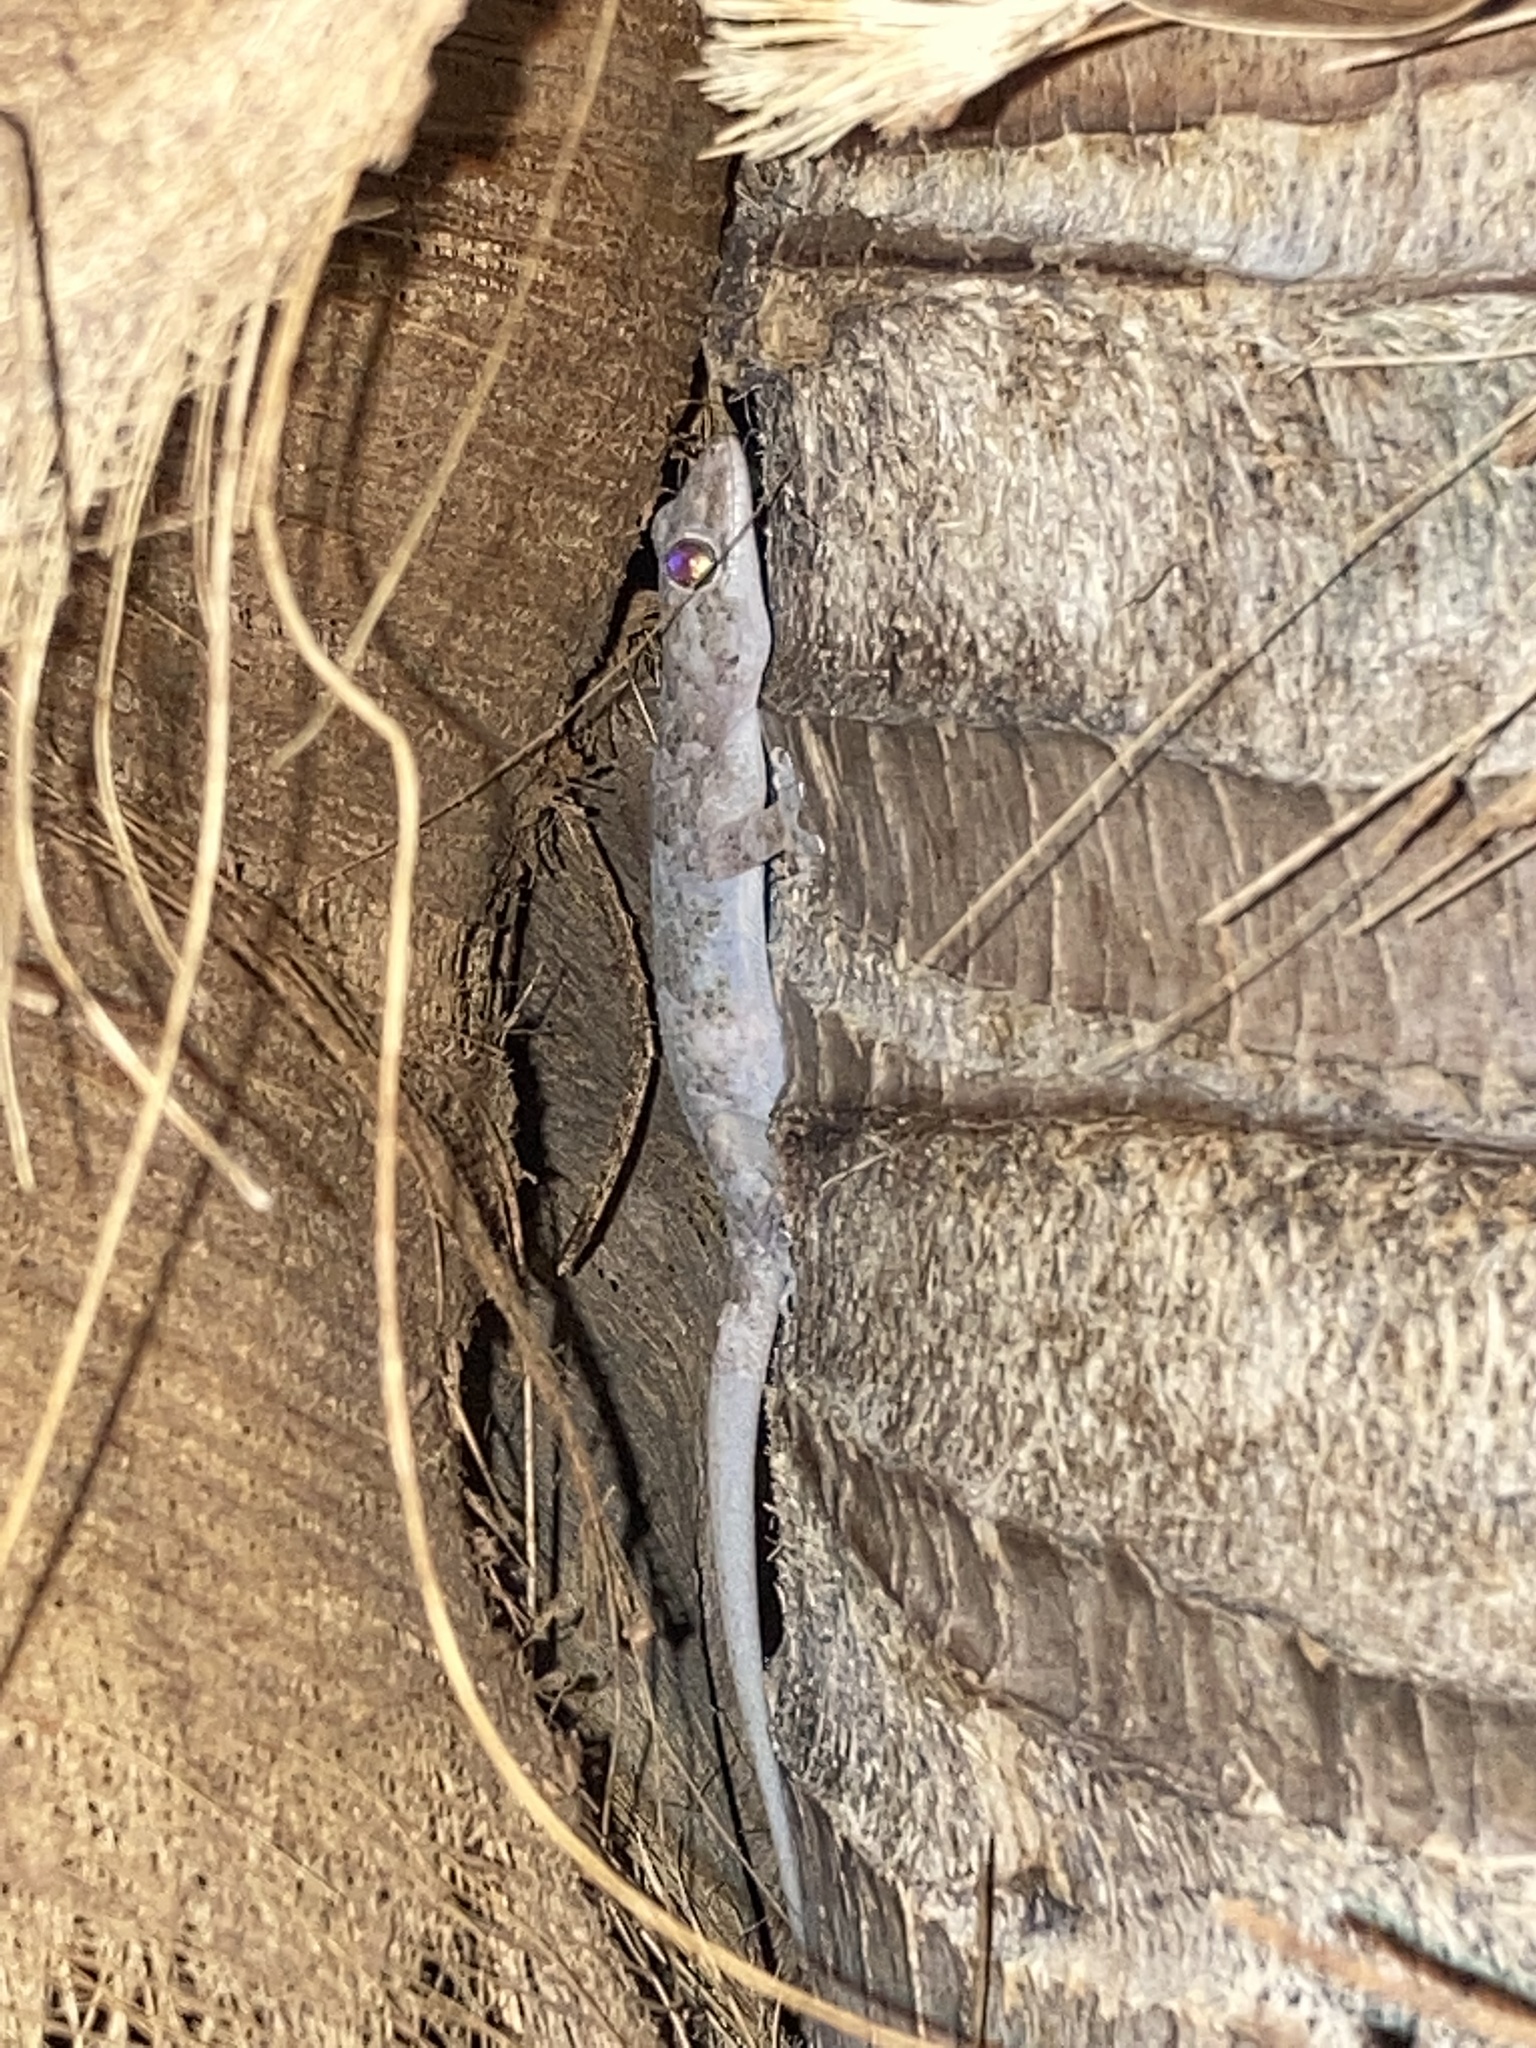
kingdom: Animalia
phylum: Chordata
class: Squamata
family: Gekkonidae
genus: Hemidactylus
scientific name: Hemidactylus mabouia
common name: House gecko
